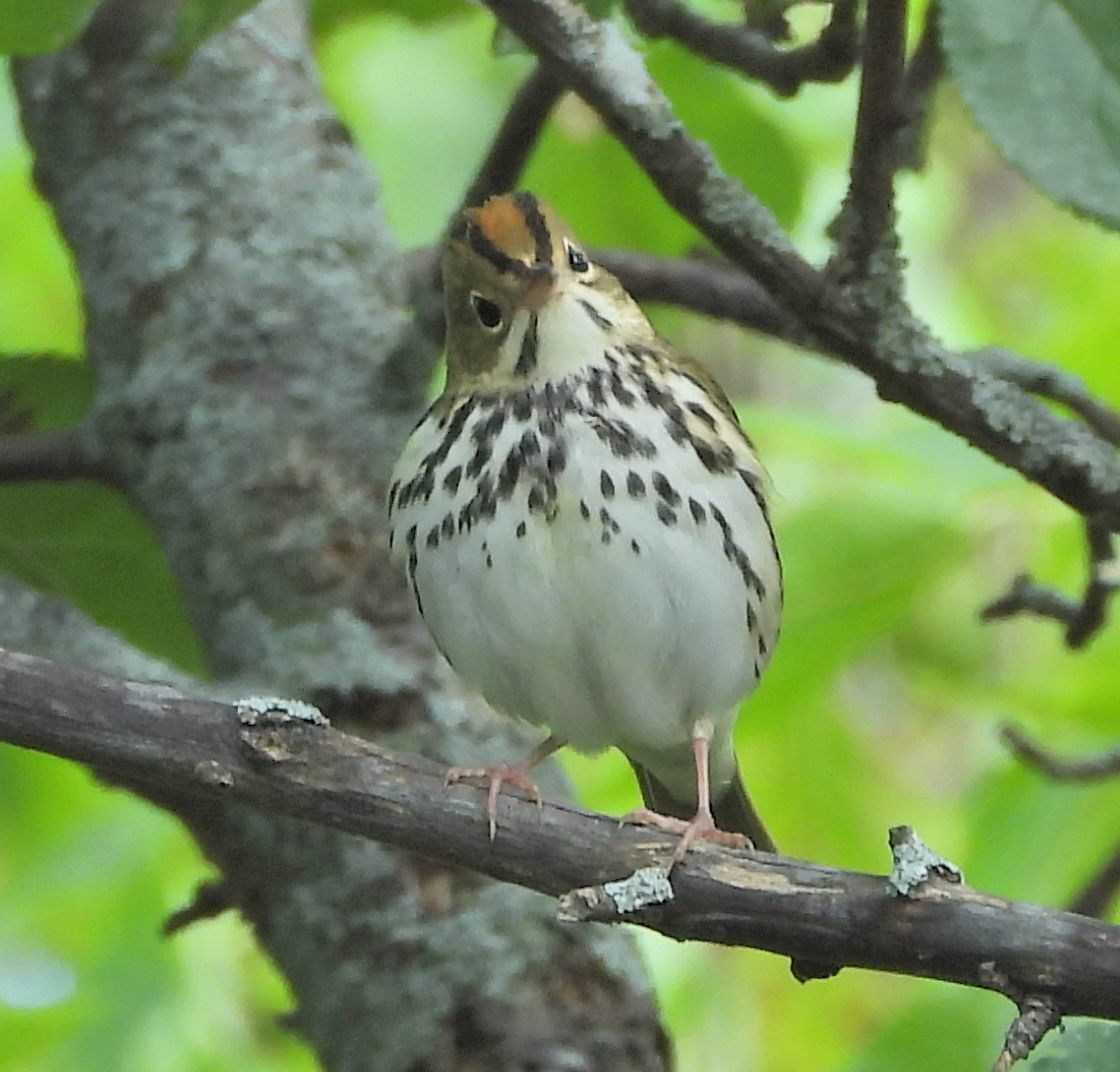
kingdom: Animalia
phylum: Chordata
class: Aves
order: Passeriformes
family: Parulidae
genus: Seiurus
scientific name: Seiurus aurocapilla
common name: Ovenbird
